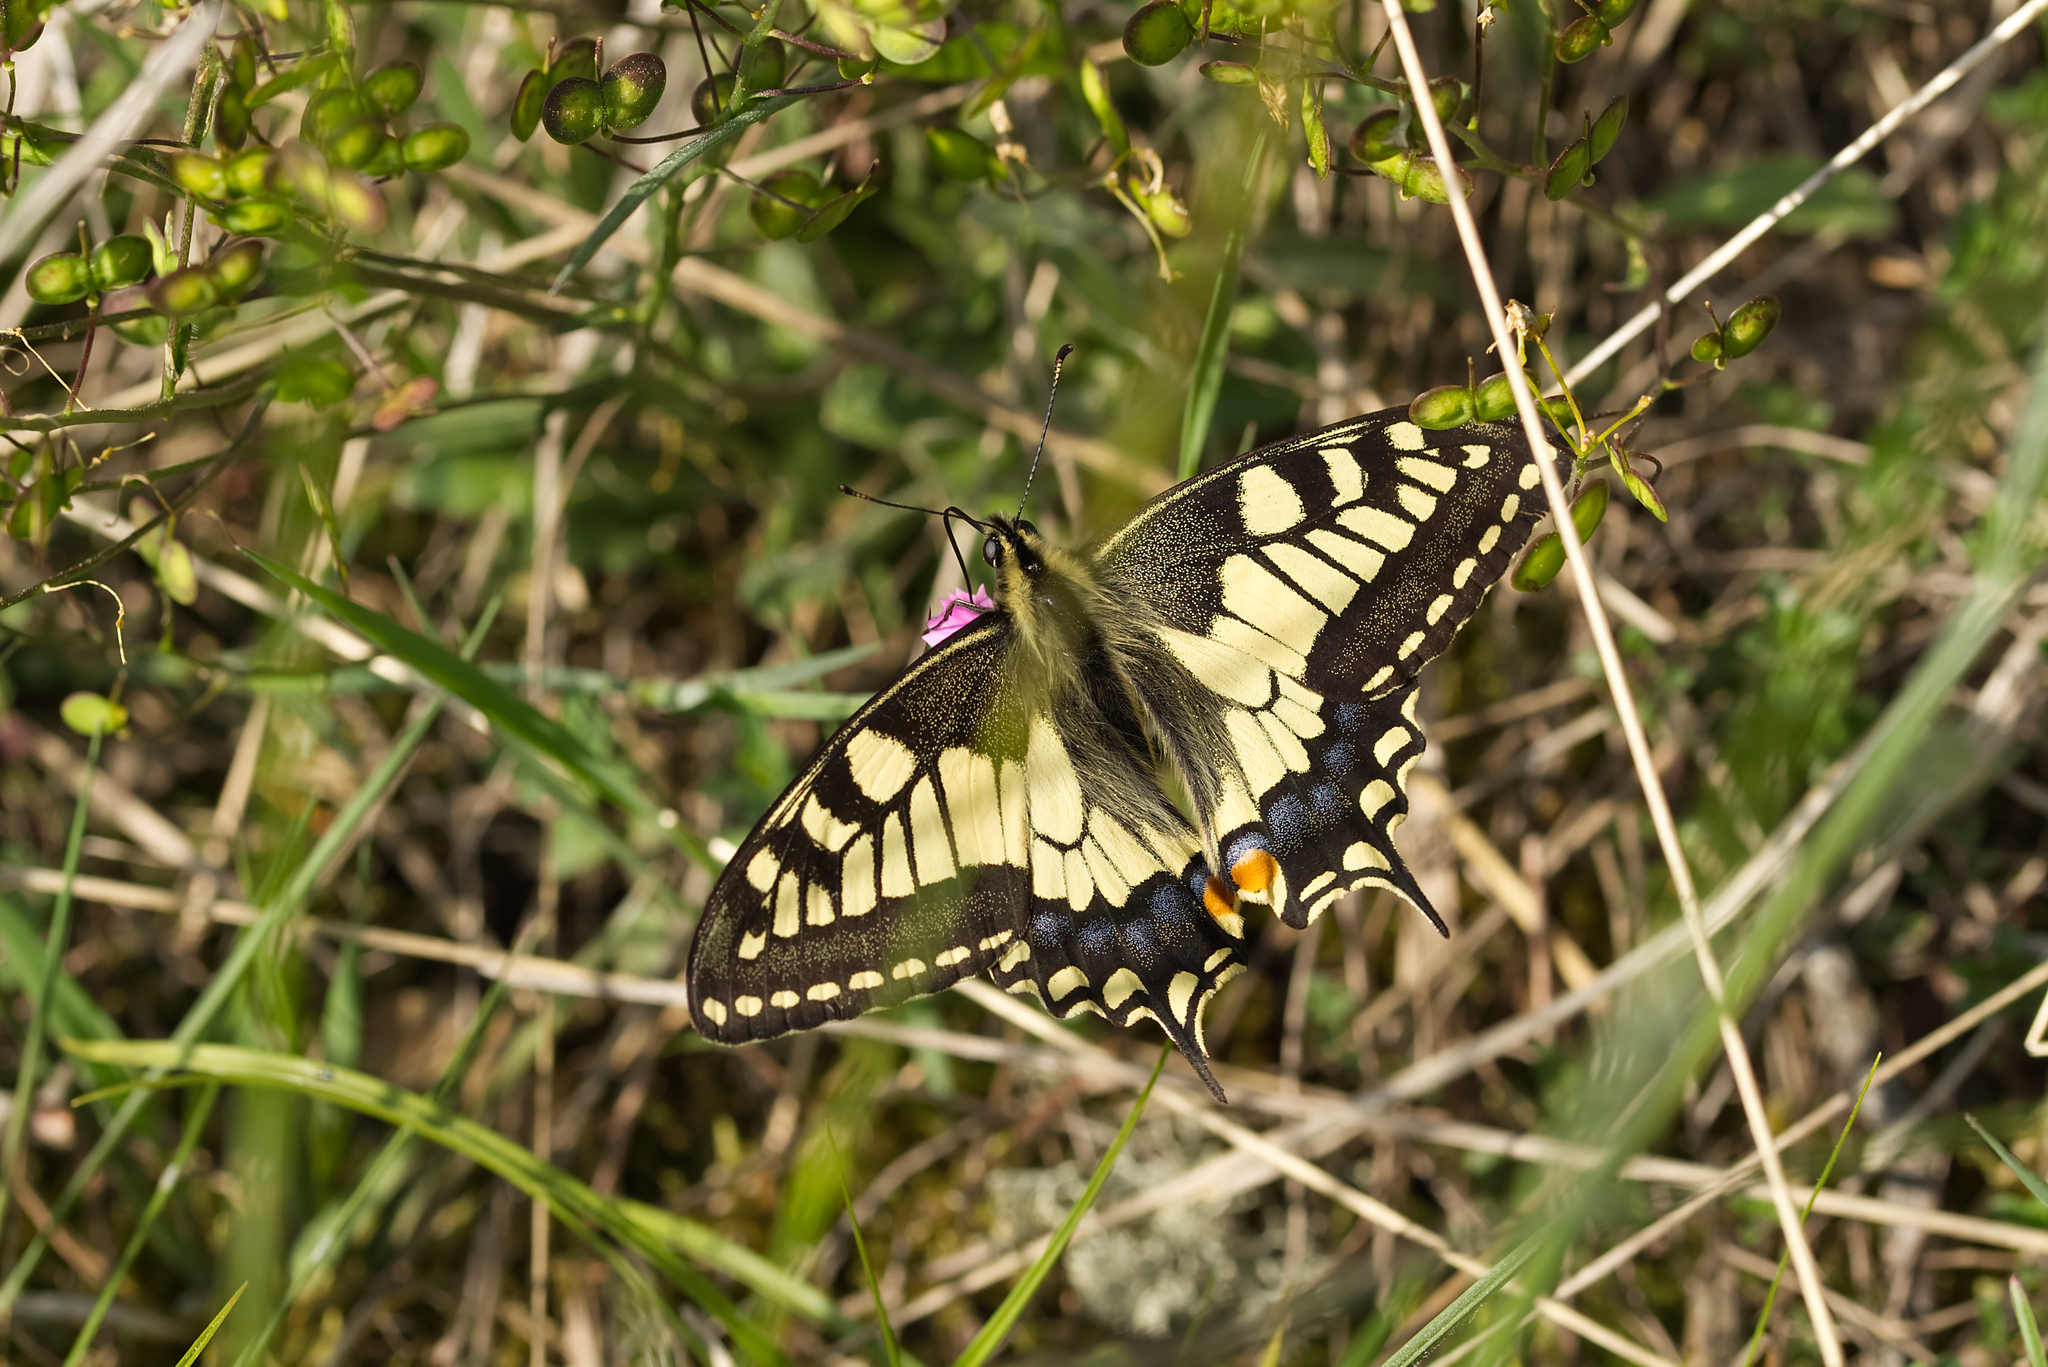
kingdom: Animalia
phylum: Arthropoda
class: Insecta
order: Lepidoptera
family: Papilionidae
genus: Papilio
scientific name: Papilio machaon
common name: Swallowtail
